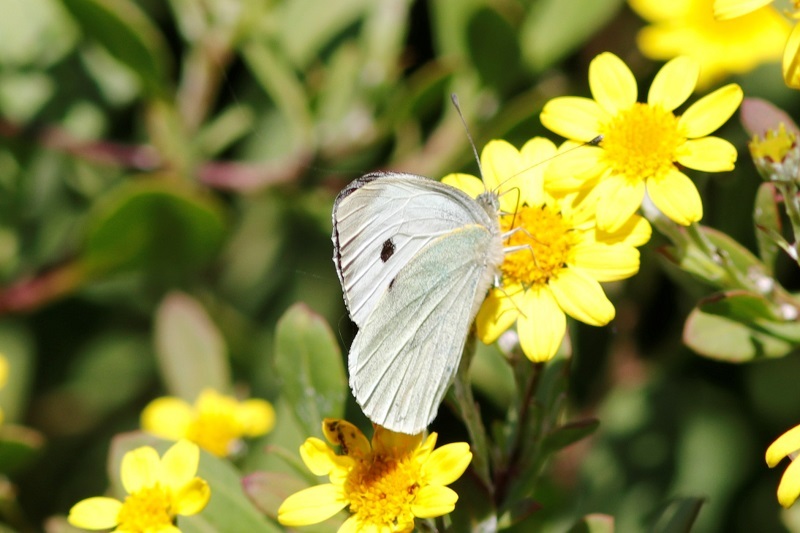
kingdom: Animalia
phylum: Arthropoda
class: Insecta
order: Lepidoptera
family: Pieridae
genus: Pieris
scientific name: Pieris brassicae
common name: Large white
